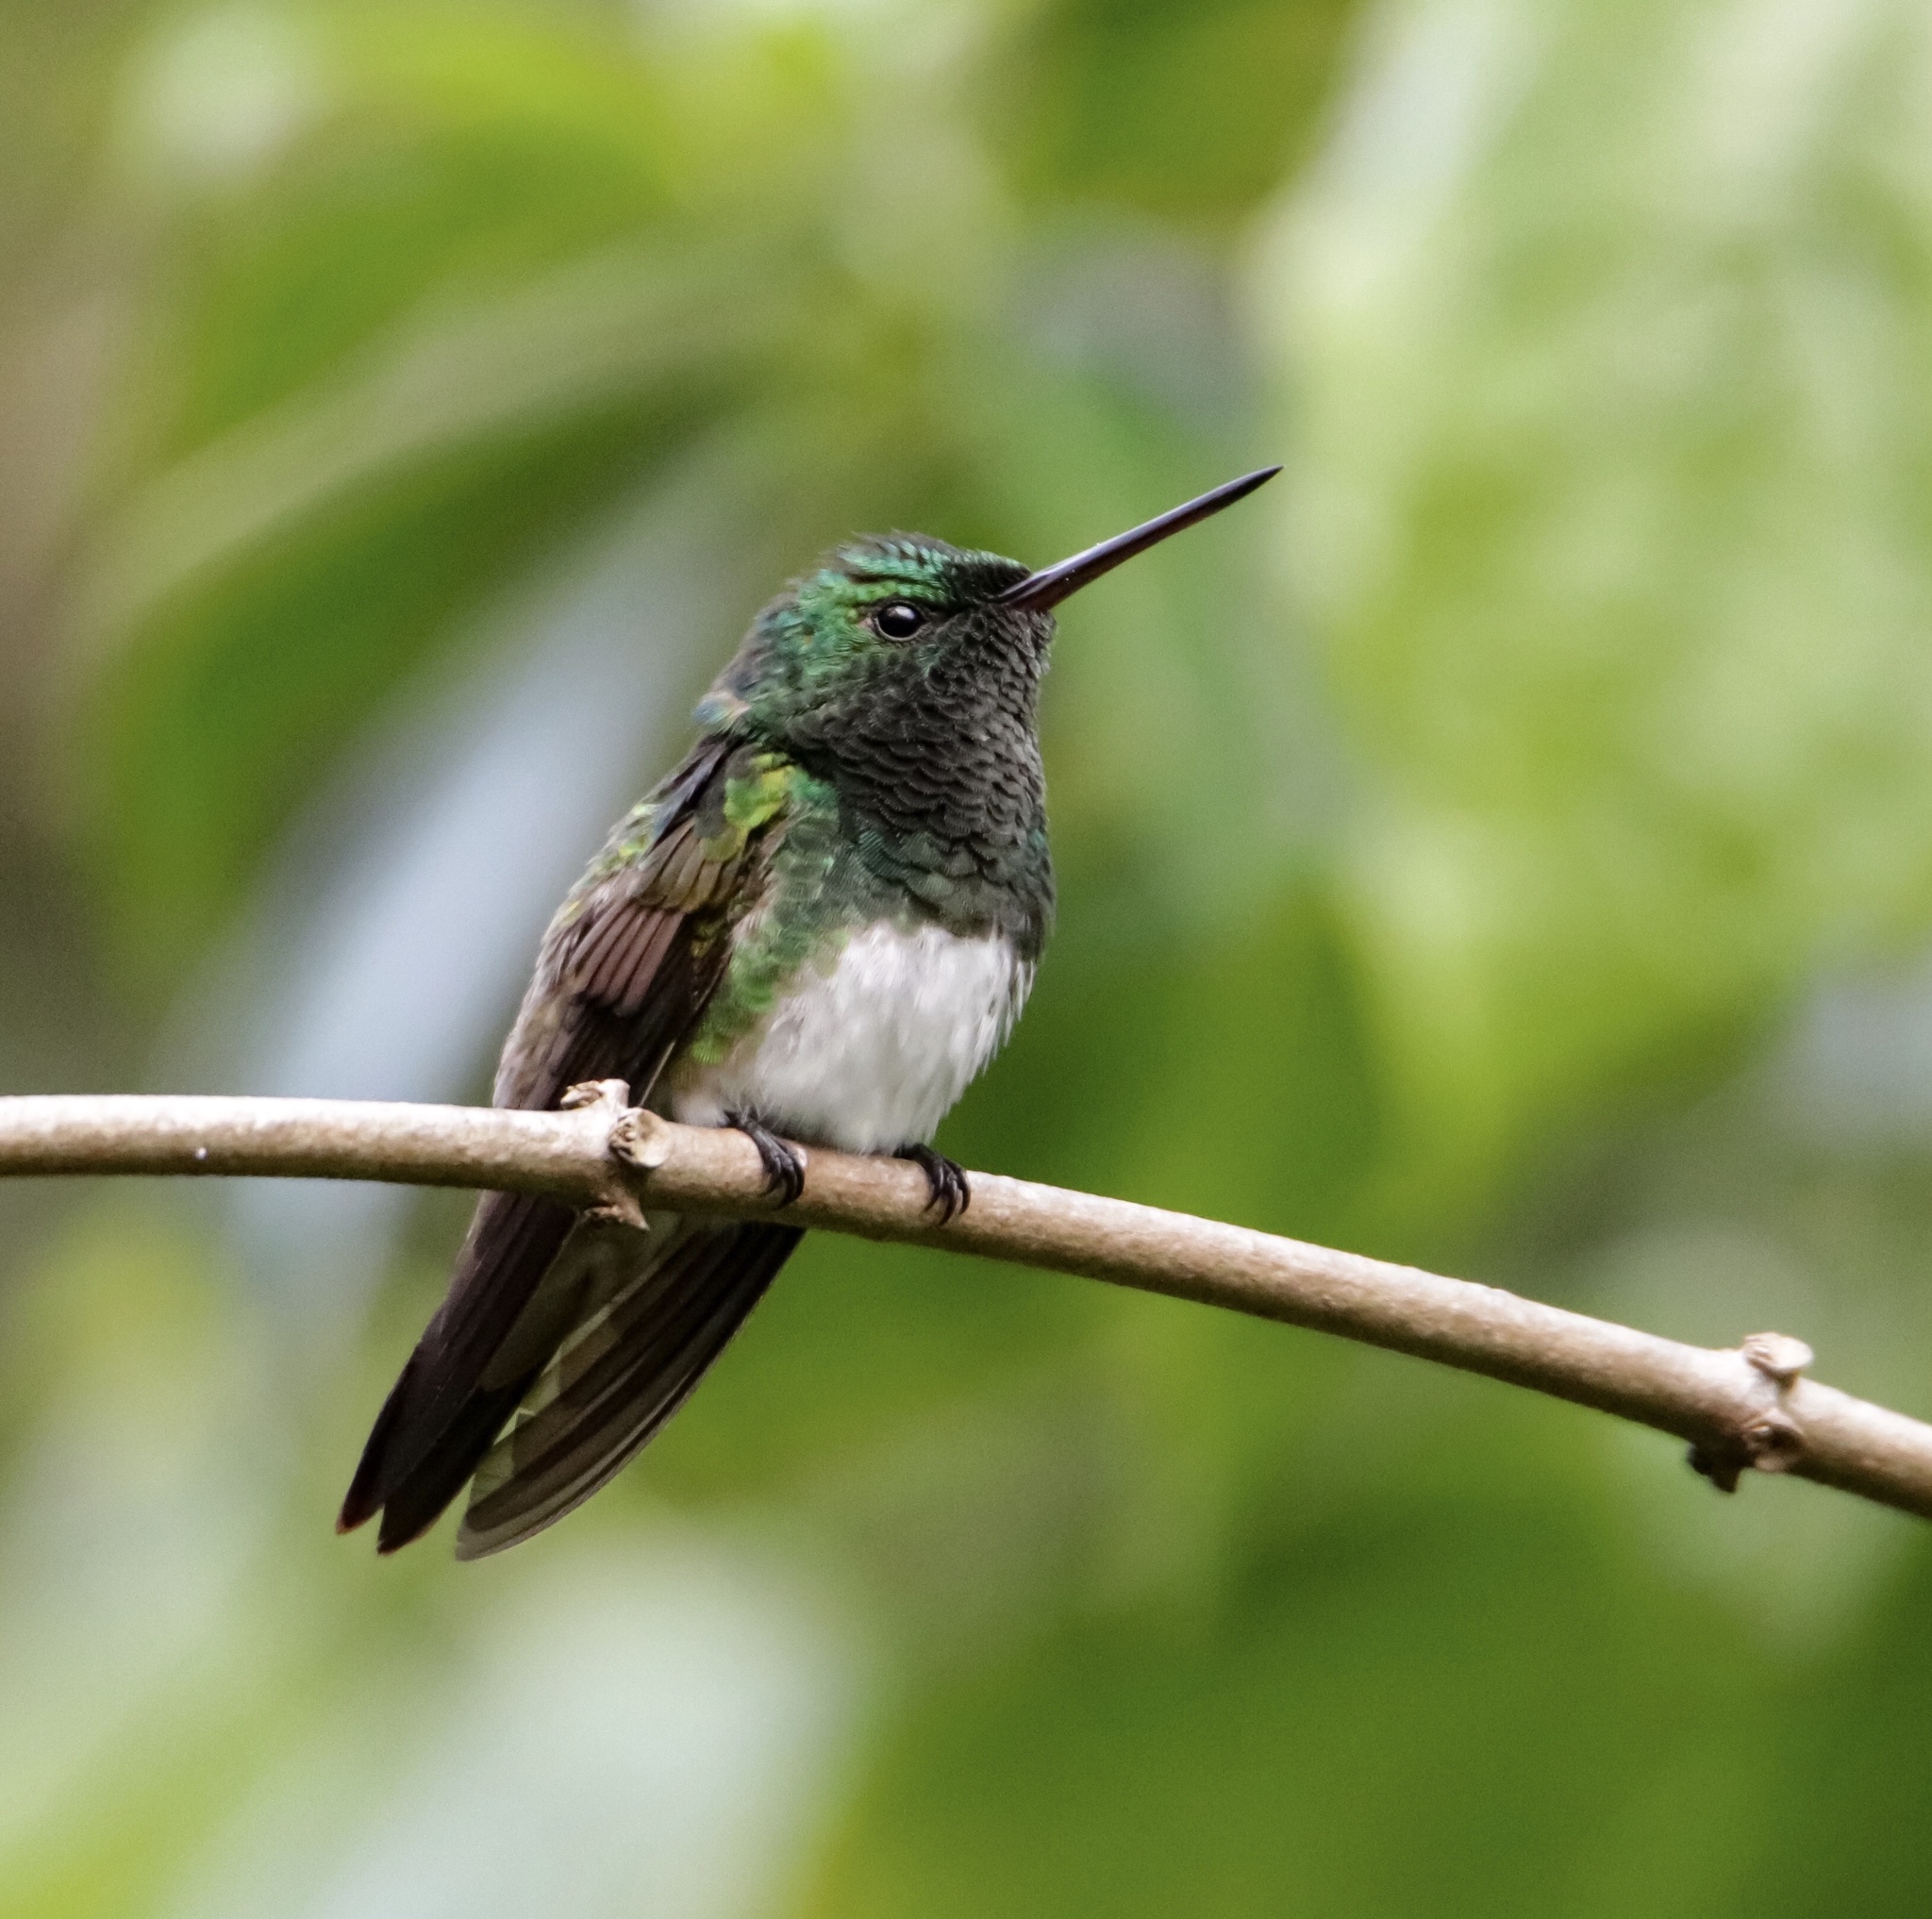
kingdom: Animalia
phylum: Chordata
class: Aves
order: Apodiformes
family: Trochilidae
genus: Saucerottia
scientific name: Saucerottia edward
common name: Snowy-bellied hummingbird
